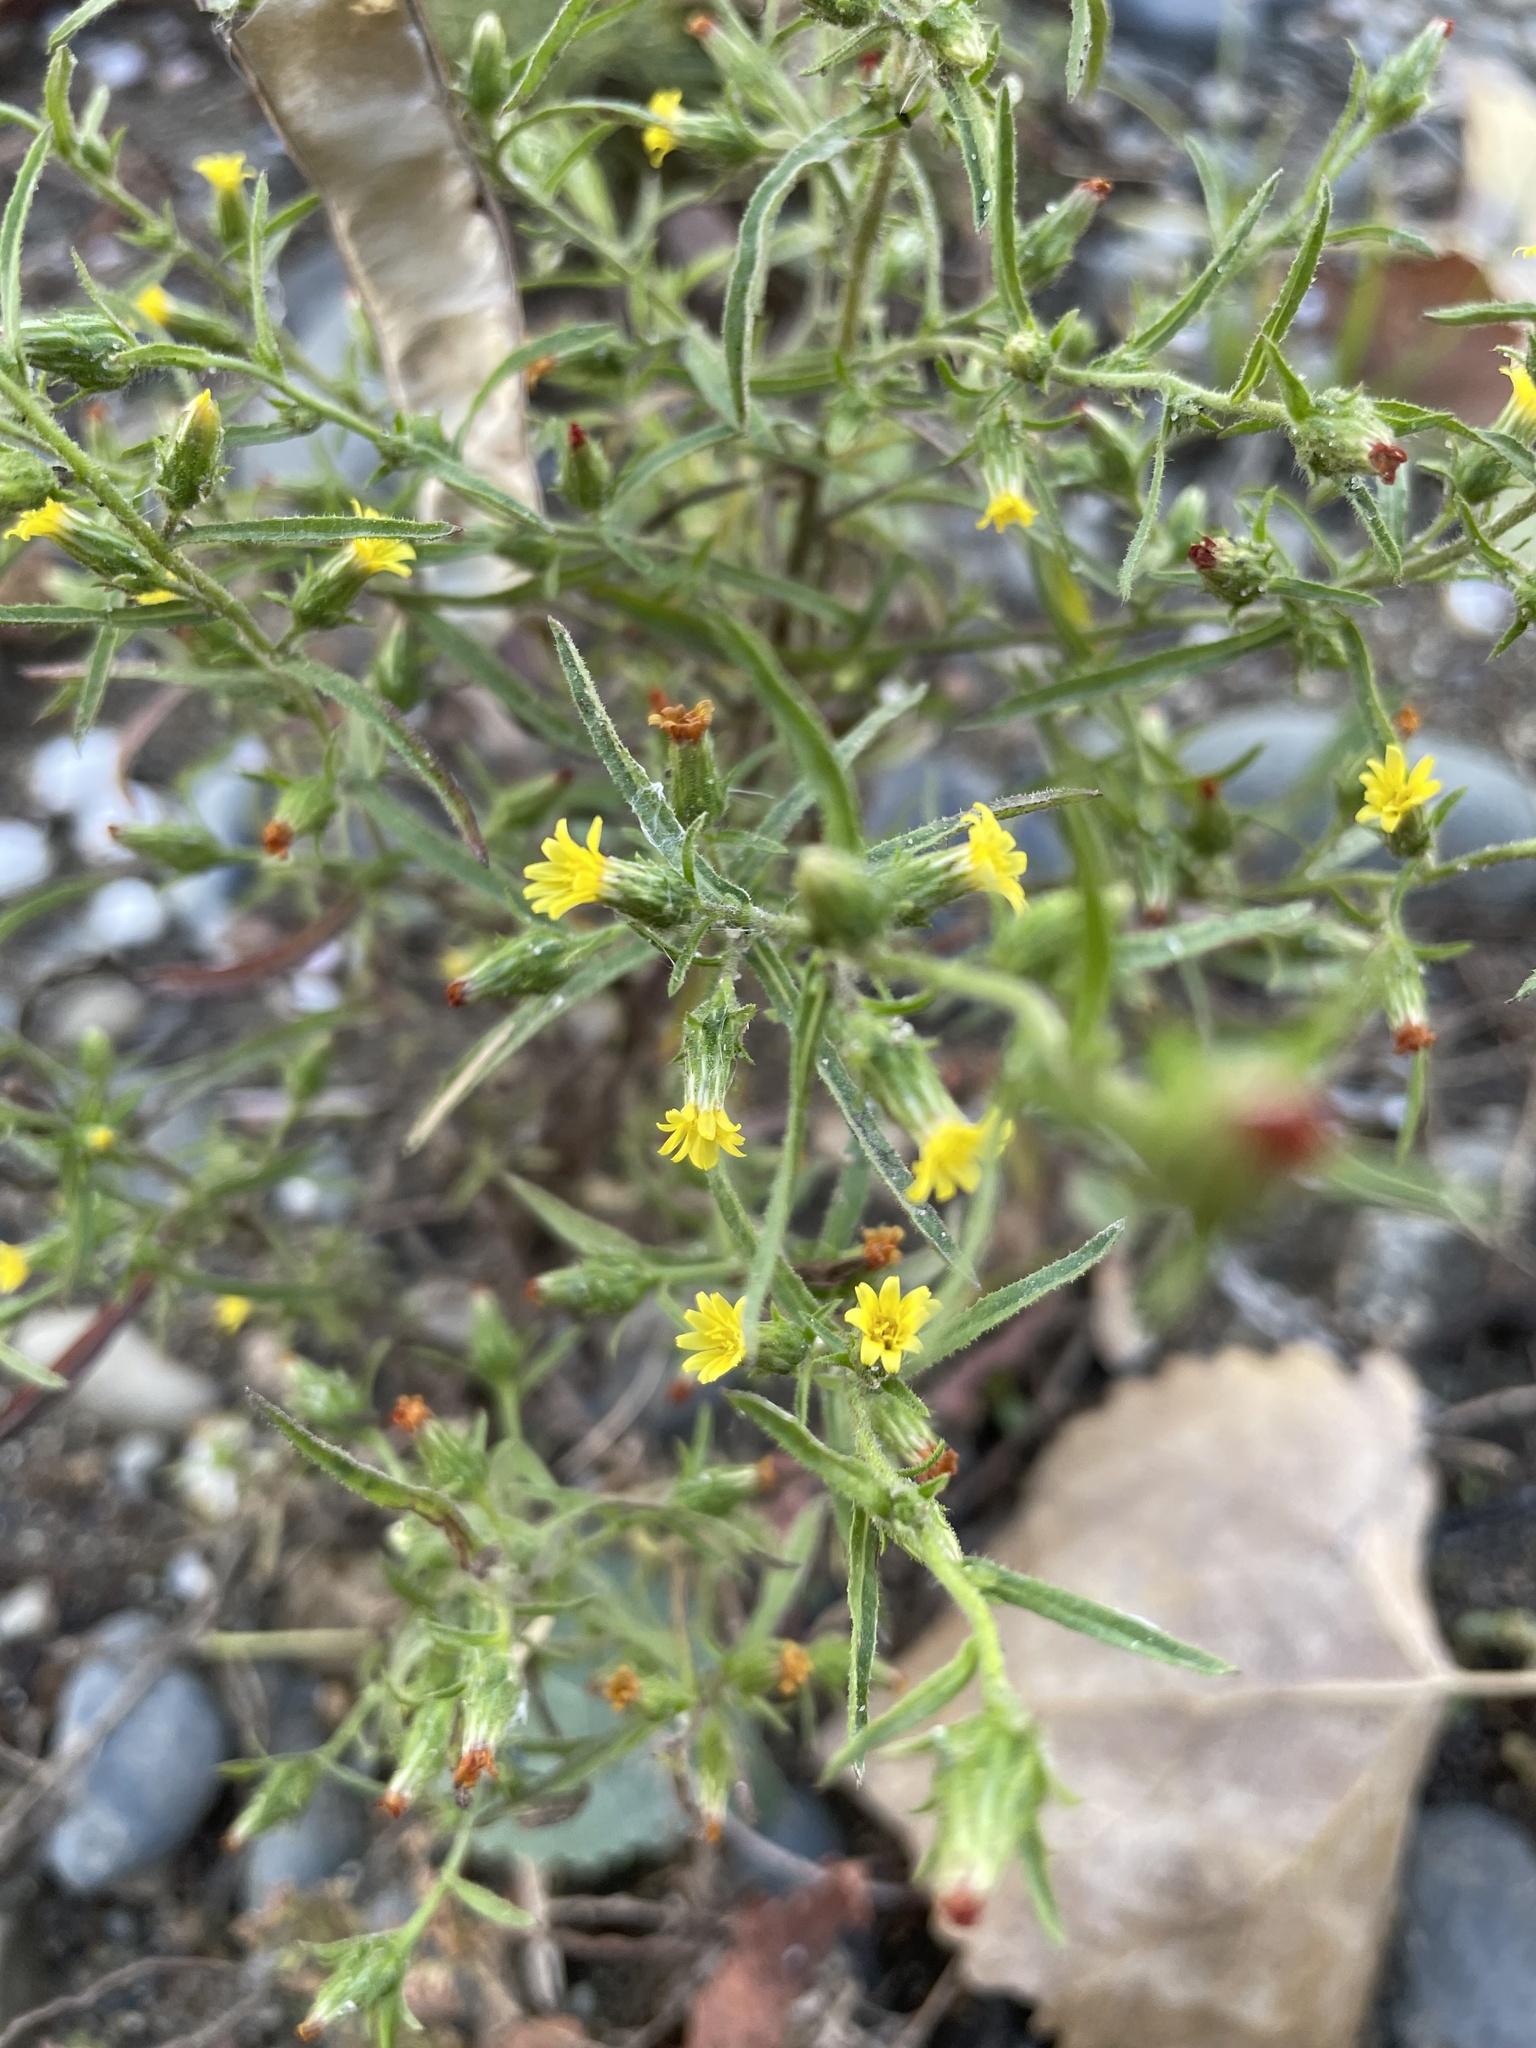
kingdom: Plantae
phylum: Tracheophyta
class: Magnoliopsida
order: Asterales
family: Asteraceae
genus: Dittrichia
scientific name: Dittrichia graveolens
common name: Stinking fleabane
